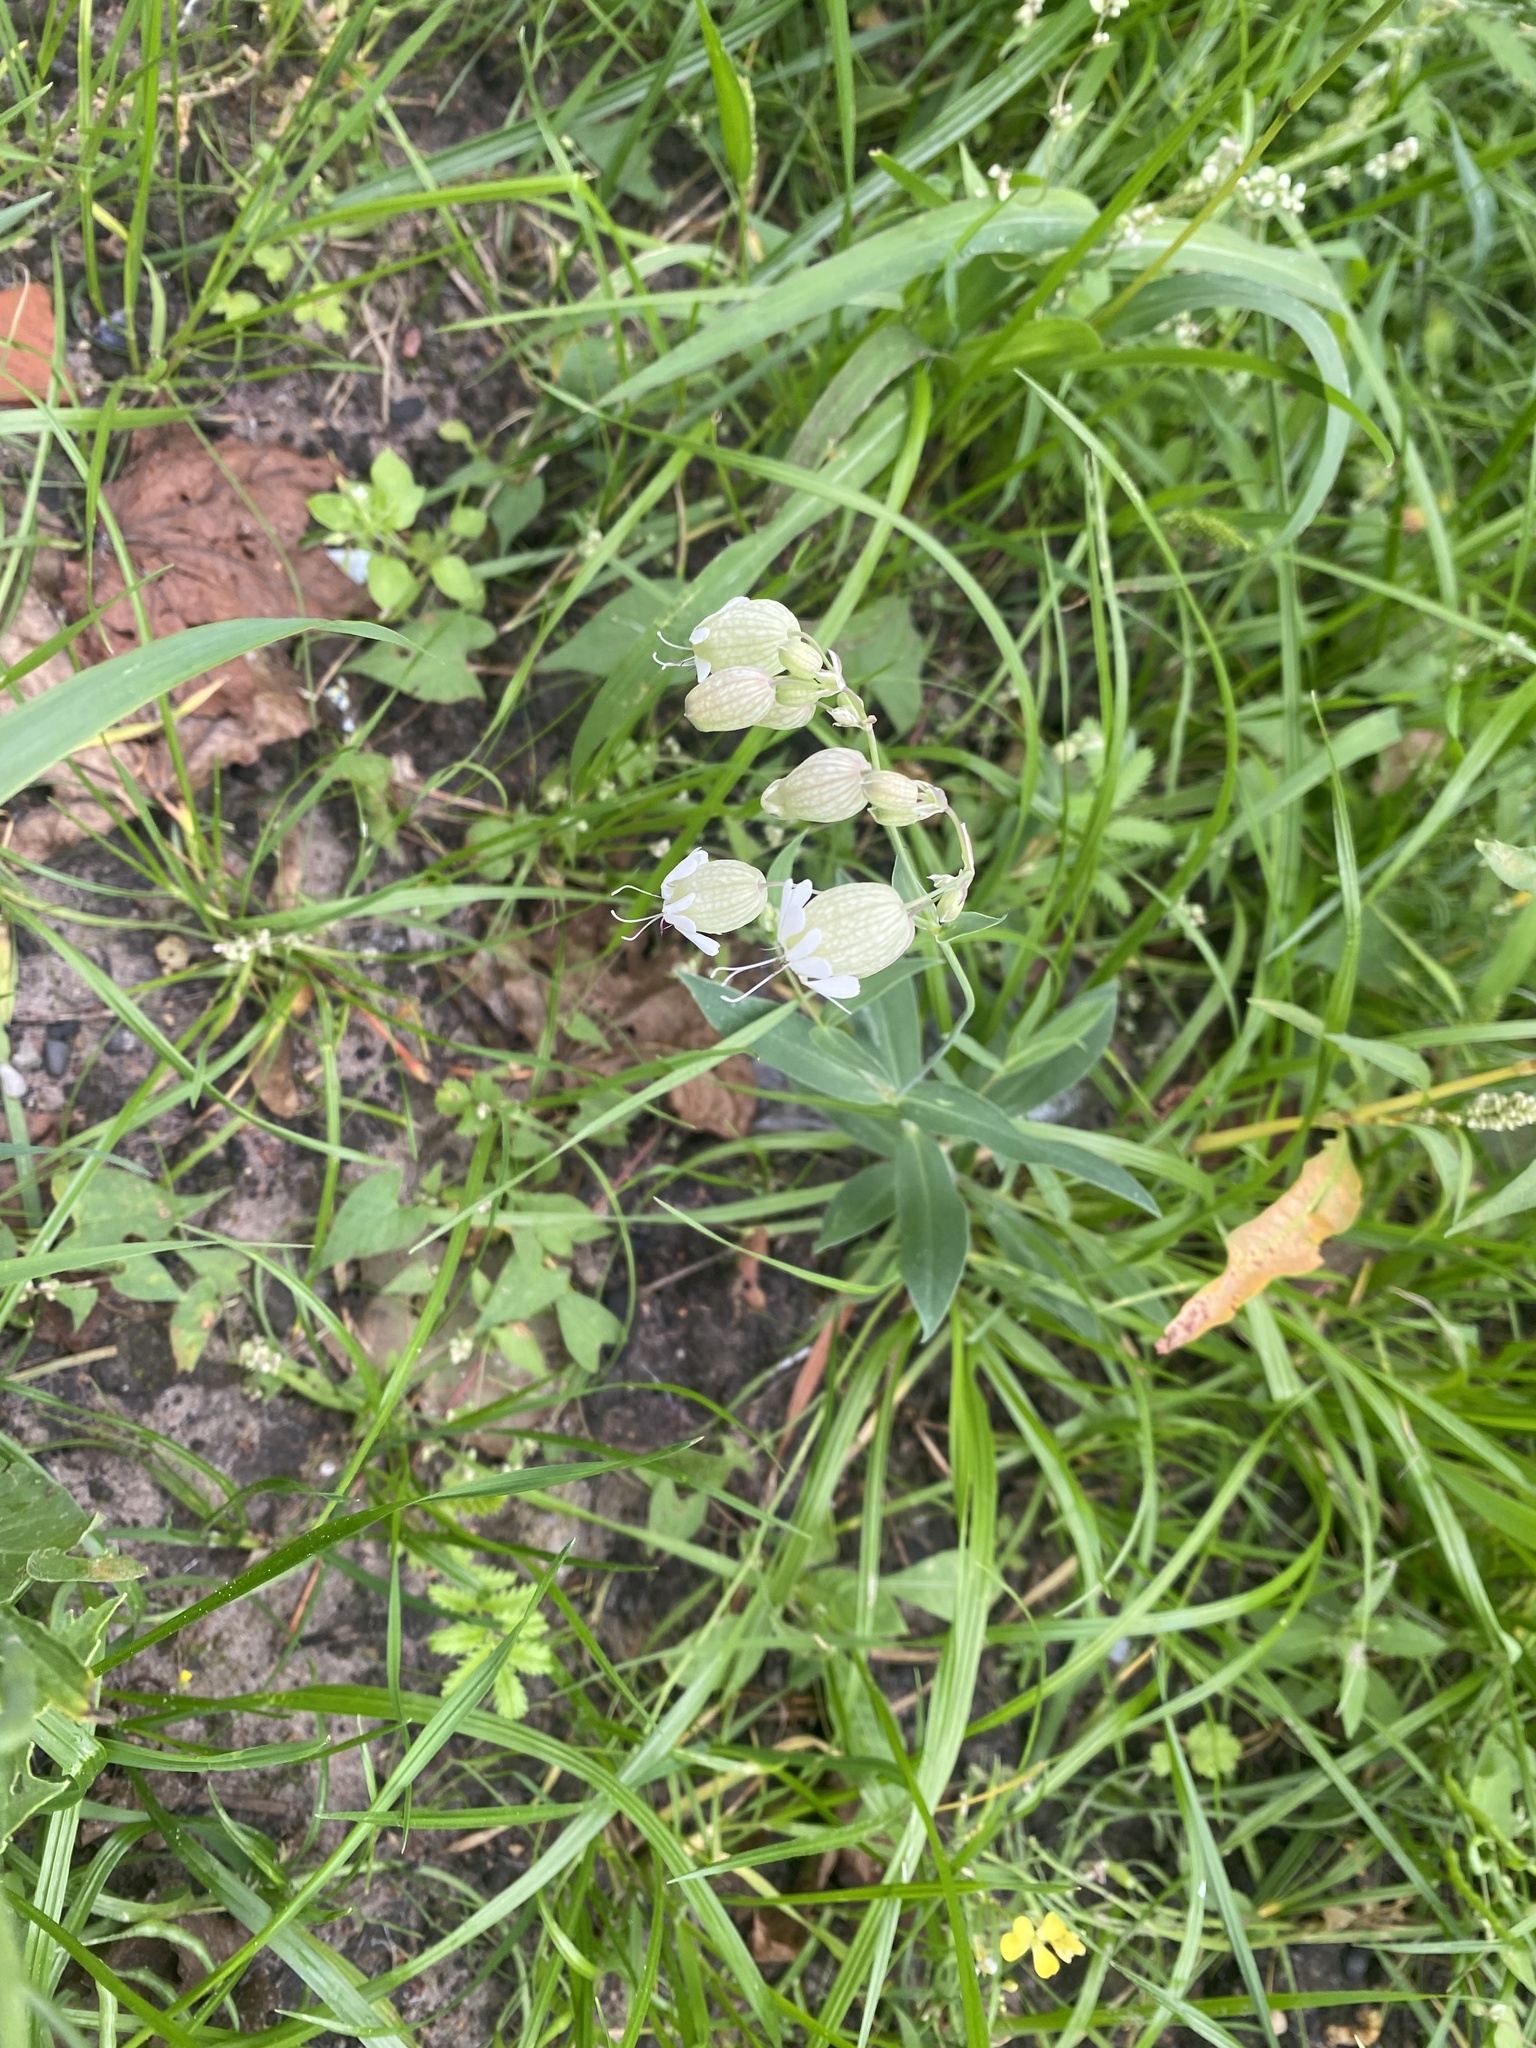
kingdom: Plantae
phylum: Tracheophyta
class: Magnoliopsida
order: Caryophyllales
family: Caryophyllaceae
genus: Silene
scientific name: Silene vulgaris
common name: Bladder campion
